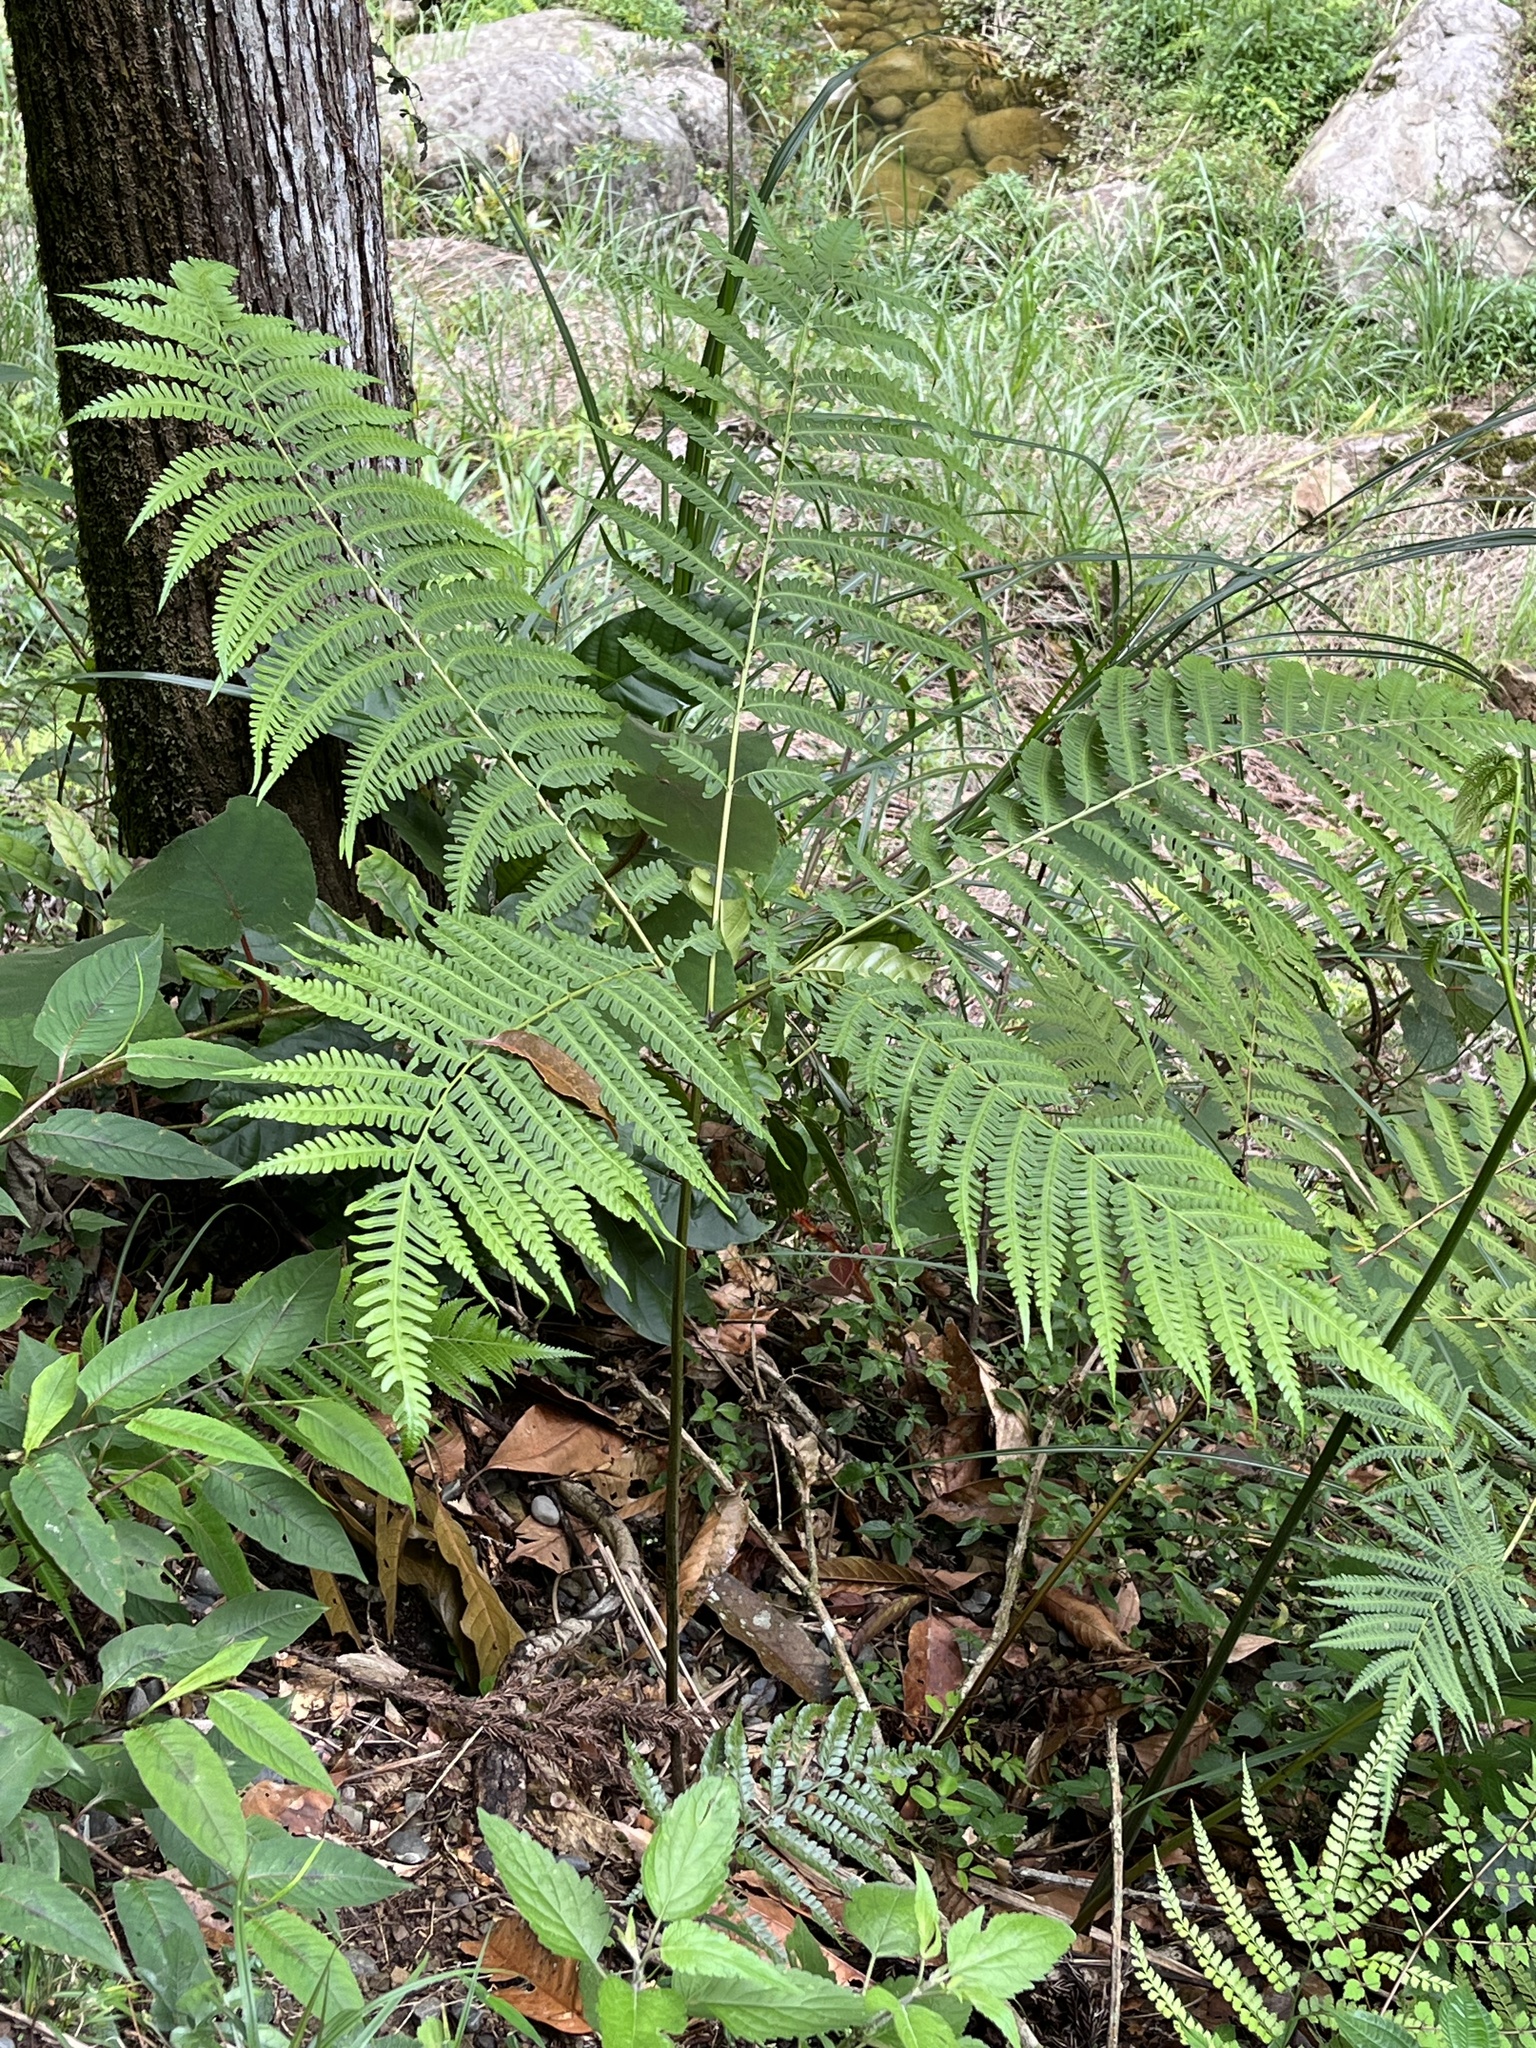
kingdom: Plantae
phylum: Tracheophyta
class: Polypodiopsida
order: Polypodiales
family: Pteridaceae
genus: Pteris
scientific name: Pteris wallichiana
